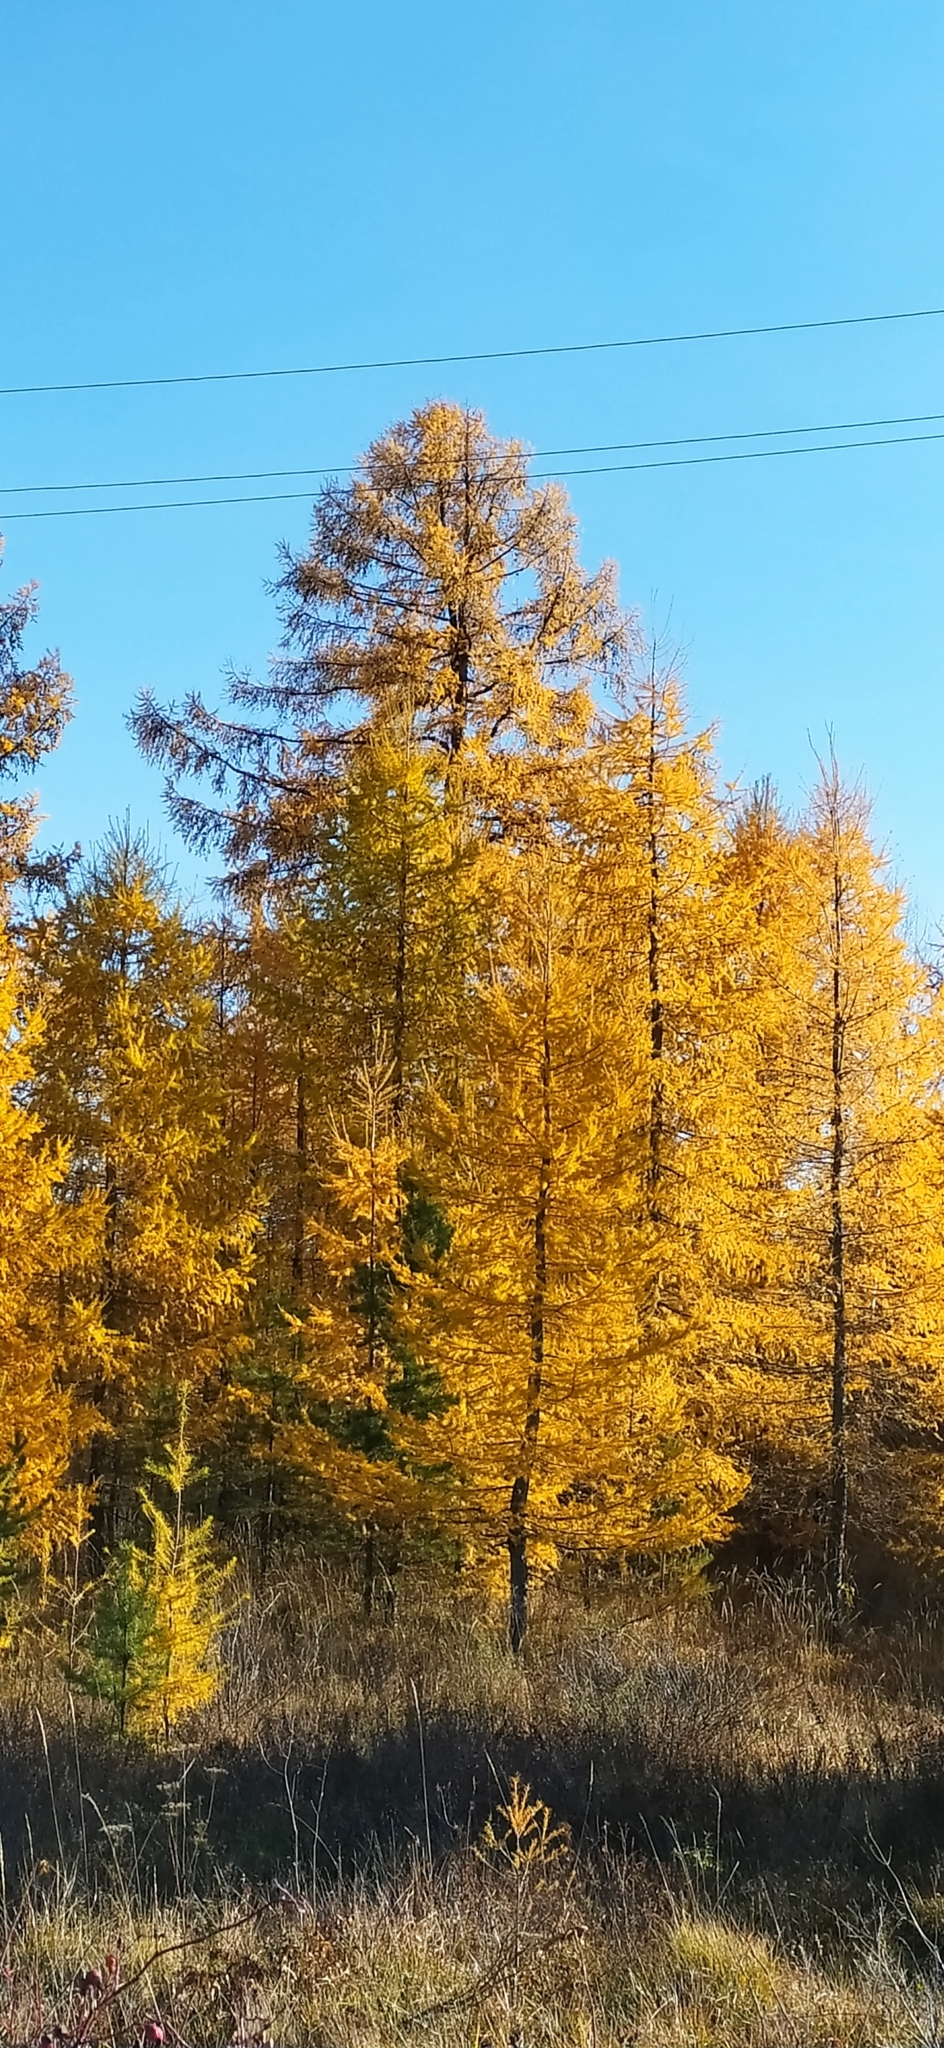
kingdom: Plantae
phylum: Tracheophyta
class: Pinopsida
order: Pinales
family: Pinaceae
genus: Larix
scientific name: Larix sibirica
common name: Siberian larch
